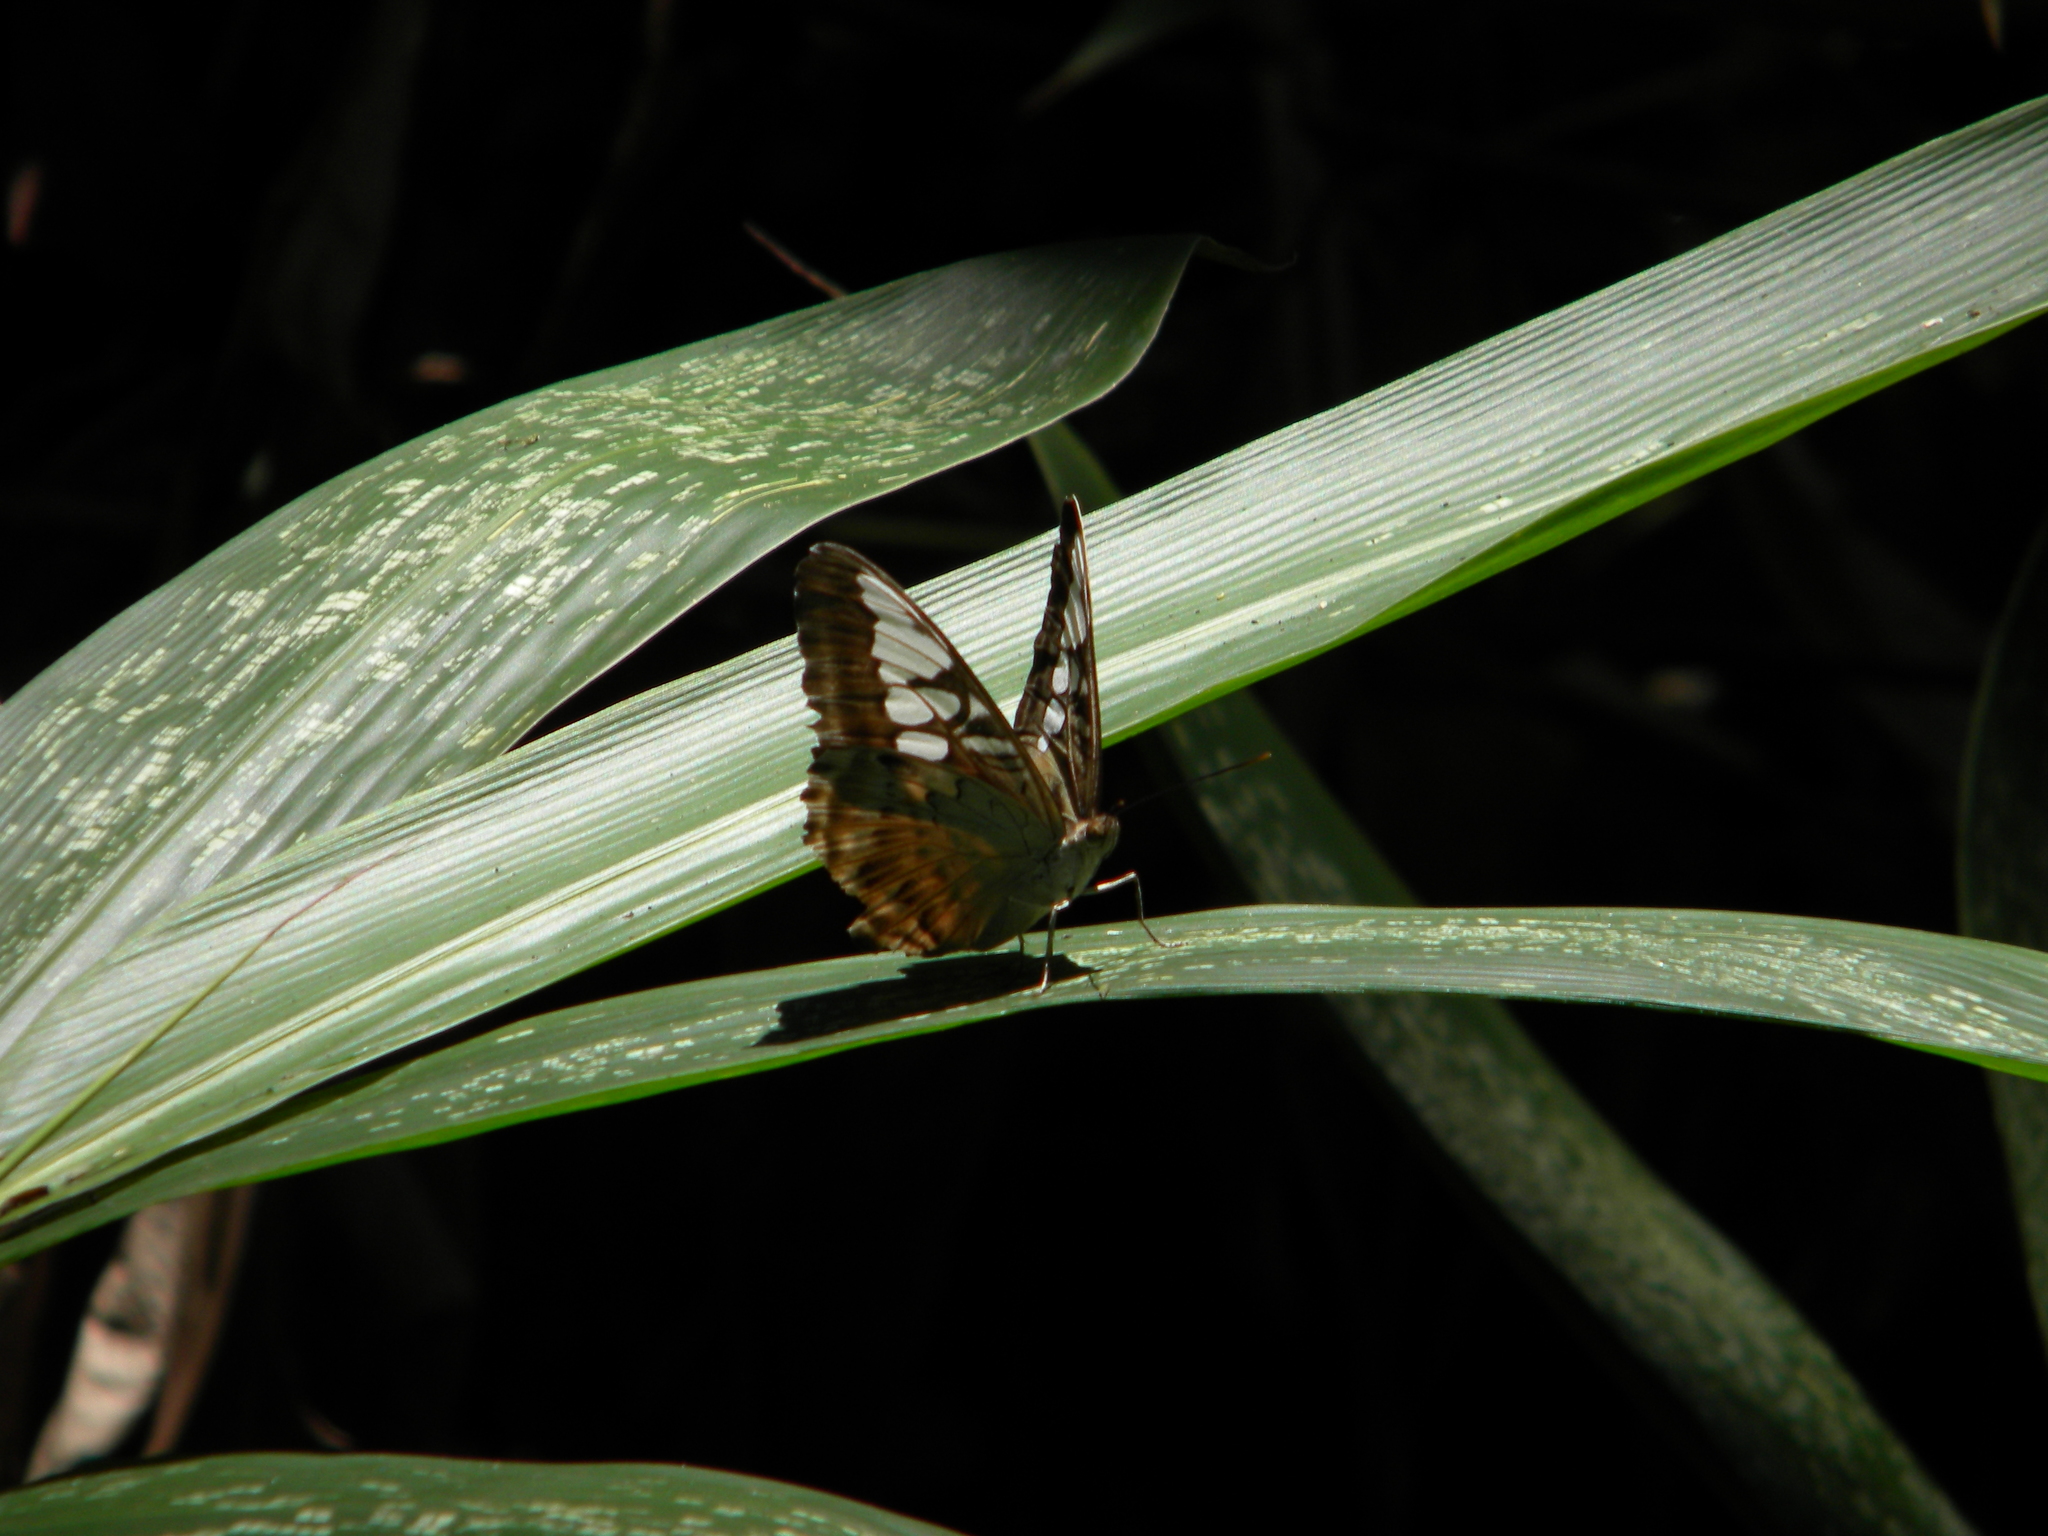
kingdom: Animalia
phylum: Arthropoda
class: Insecta
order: Lepidoptera
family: Nymphalidae
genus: Kallima
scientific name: Kallima sylvia
